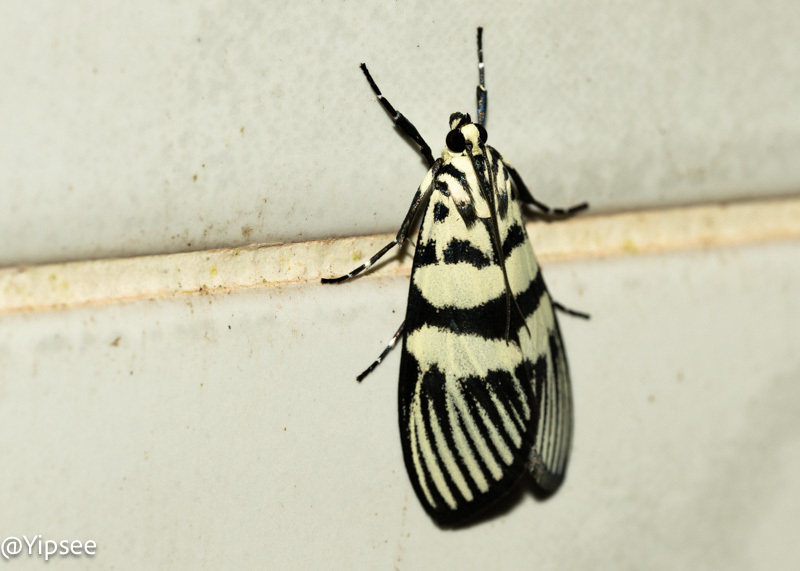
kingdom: Animalia
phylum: Arthropoda
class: Insecta
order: Lepidoptera
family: Crambidae
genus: Heortia
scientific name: Heortia vitessoides
